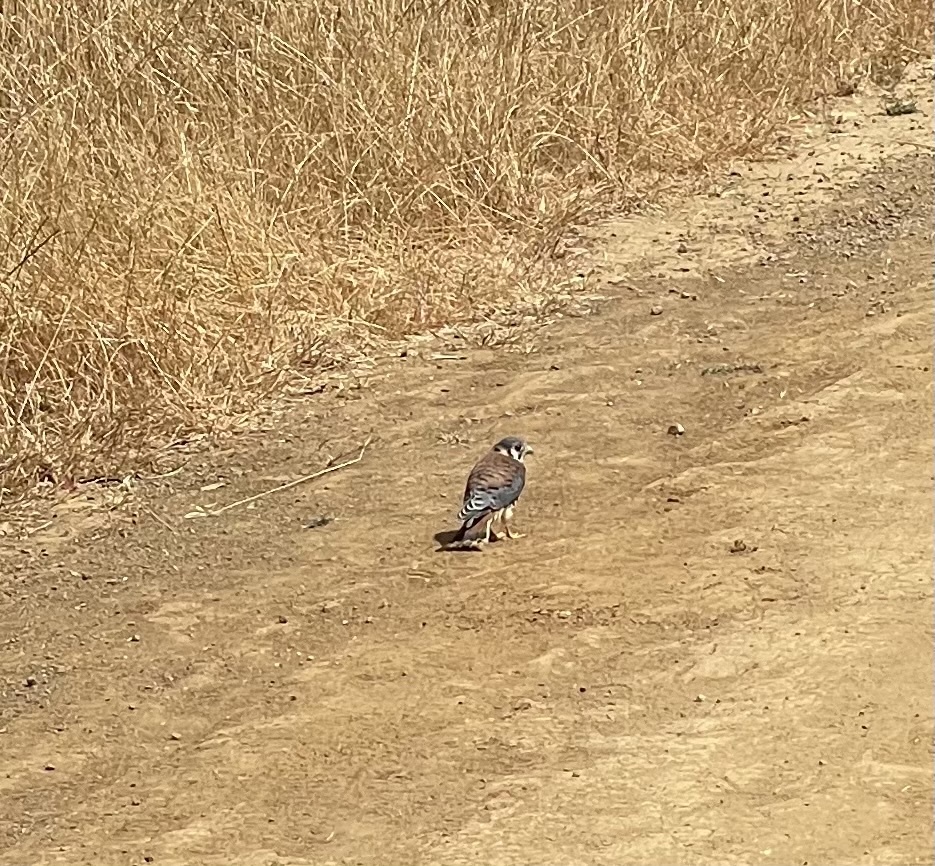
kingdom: Animalia
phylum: Chordata
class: Aves
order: Falconiformes
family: Falconidae
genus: Falco
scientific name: Falco sparverius
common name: American kestrel
